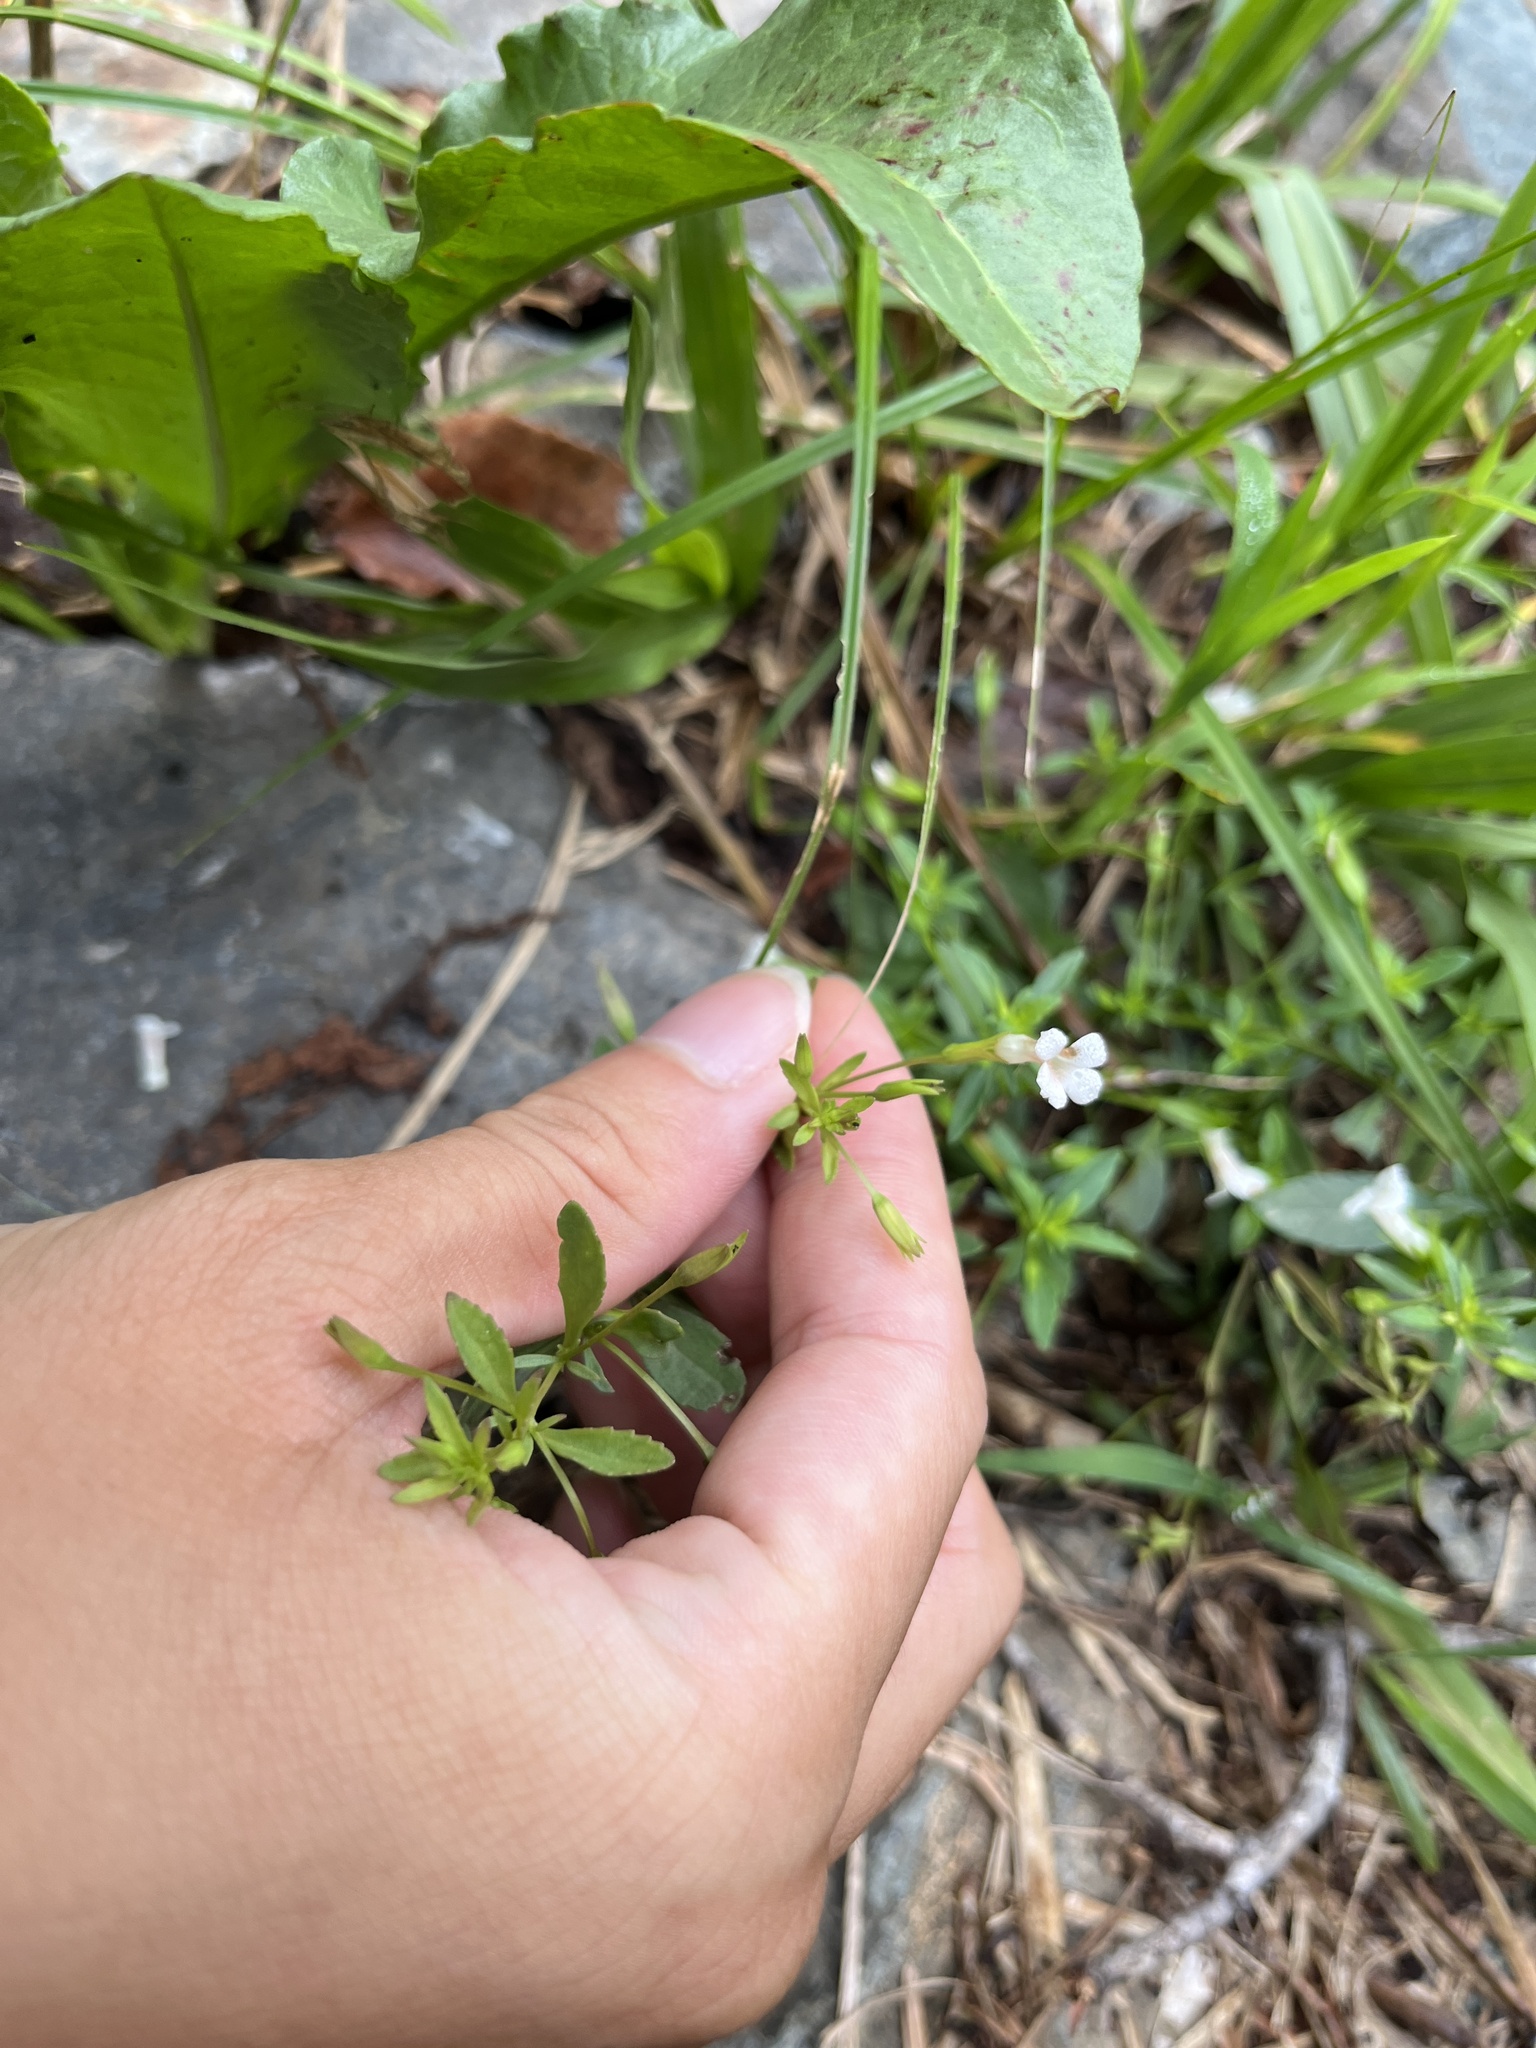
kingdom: Plantae
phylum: Tracheophyta
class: Magnoliopsida
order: Lamiales
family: Plantaginaceae
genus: Mecardonia
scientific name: Mecardonia acuminata
